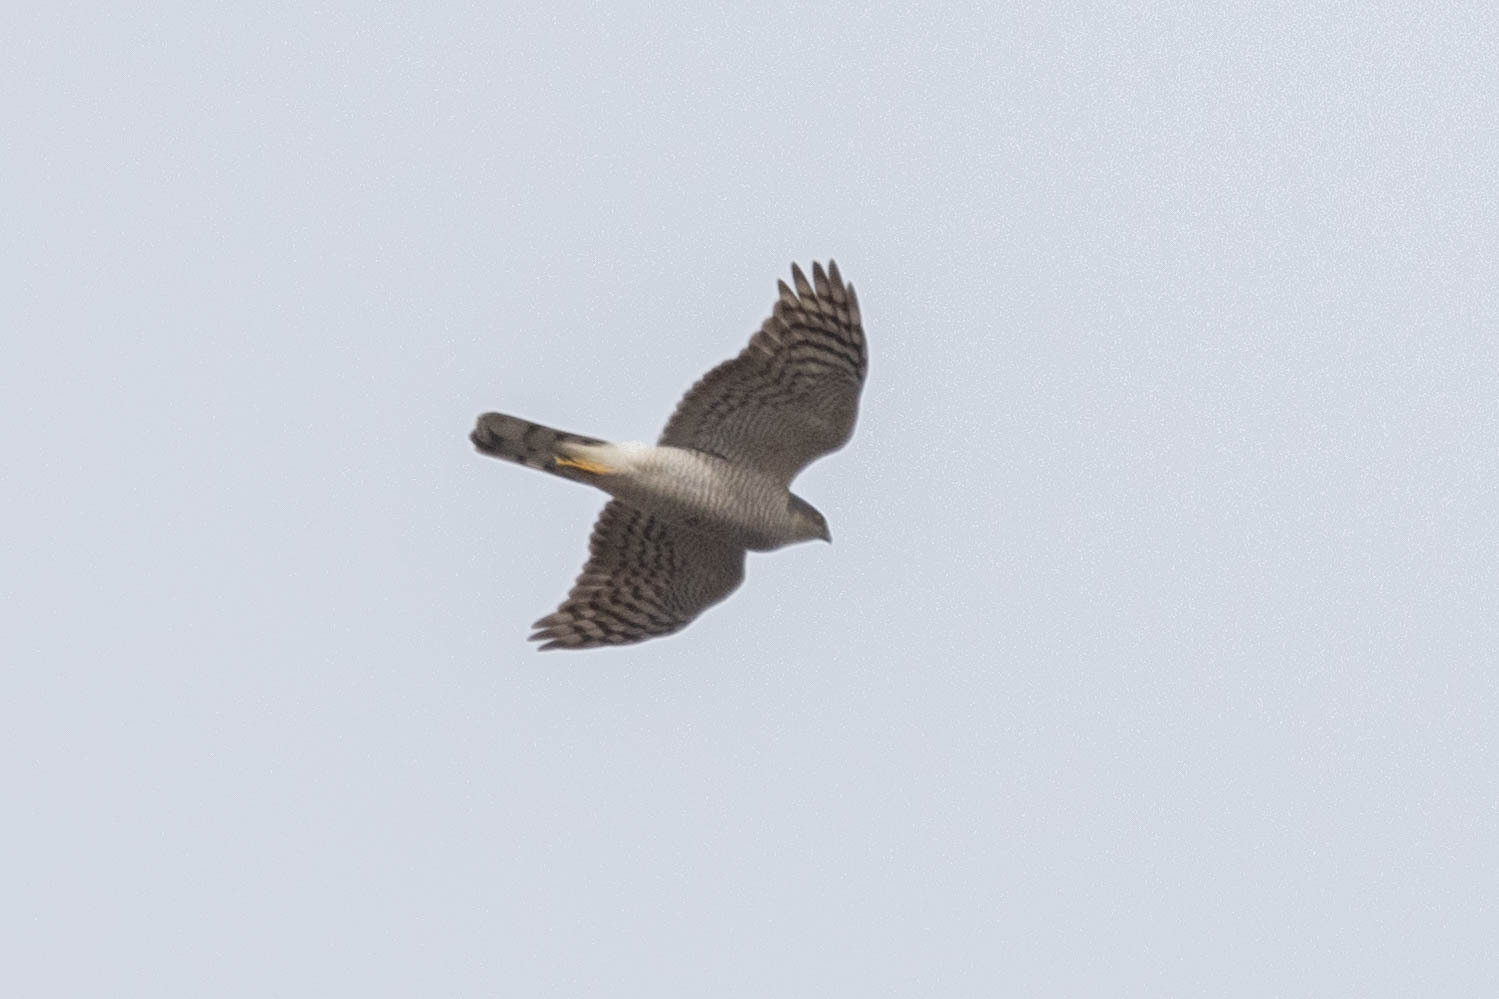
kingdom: Animalia
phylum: Chordata
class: Aves
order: Accipitriformes
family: Accipitridae
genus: Accipiter
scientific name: Accipiter nisus
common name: Eurasian sparrowhawk
